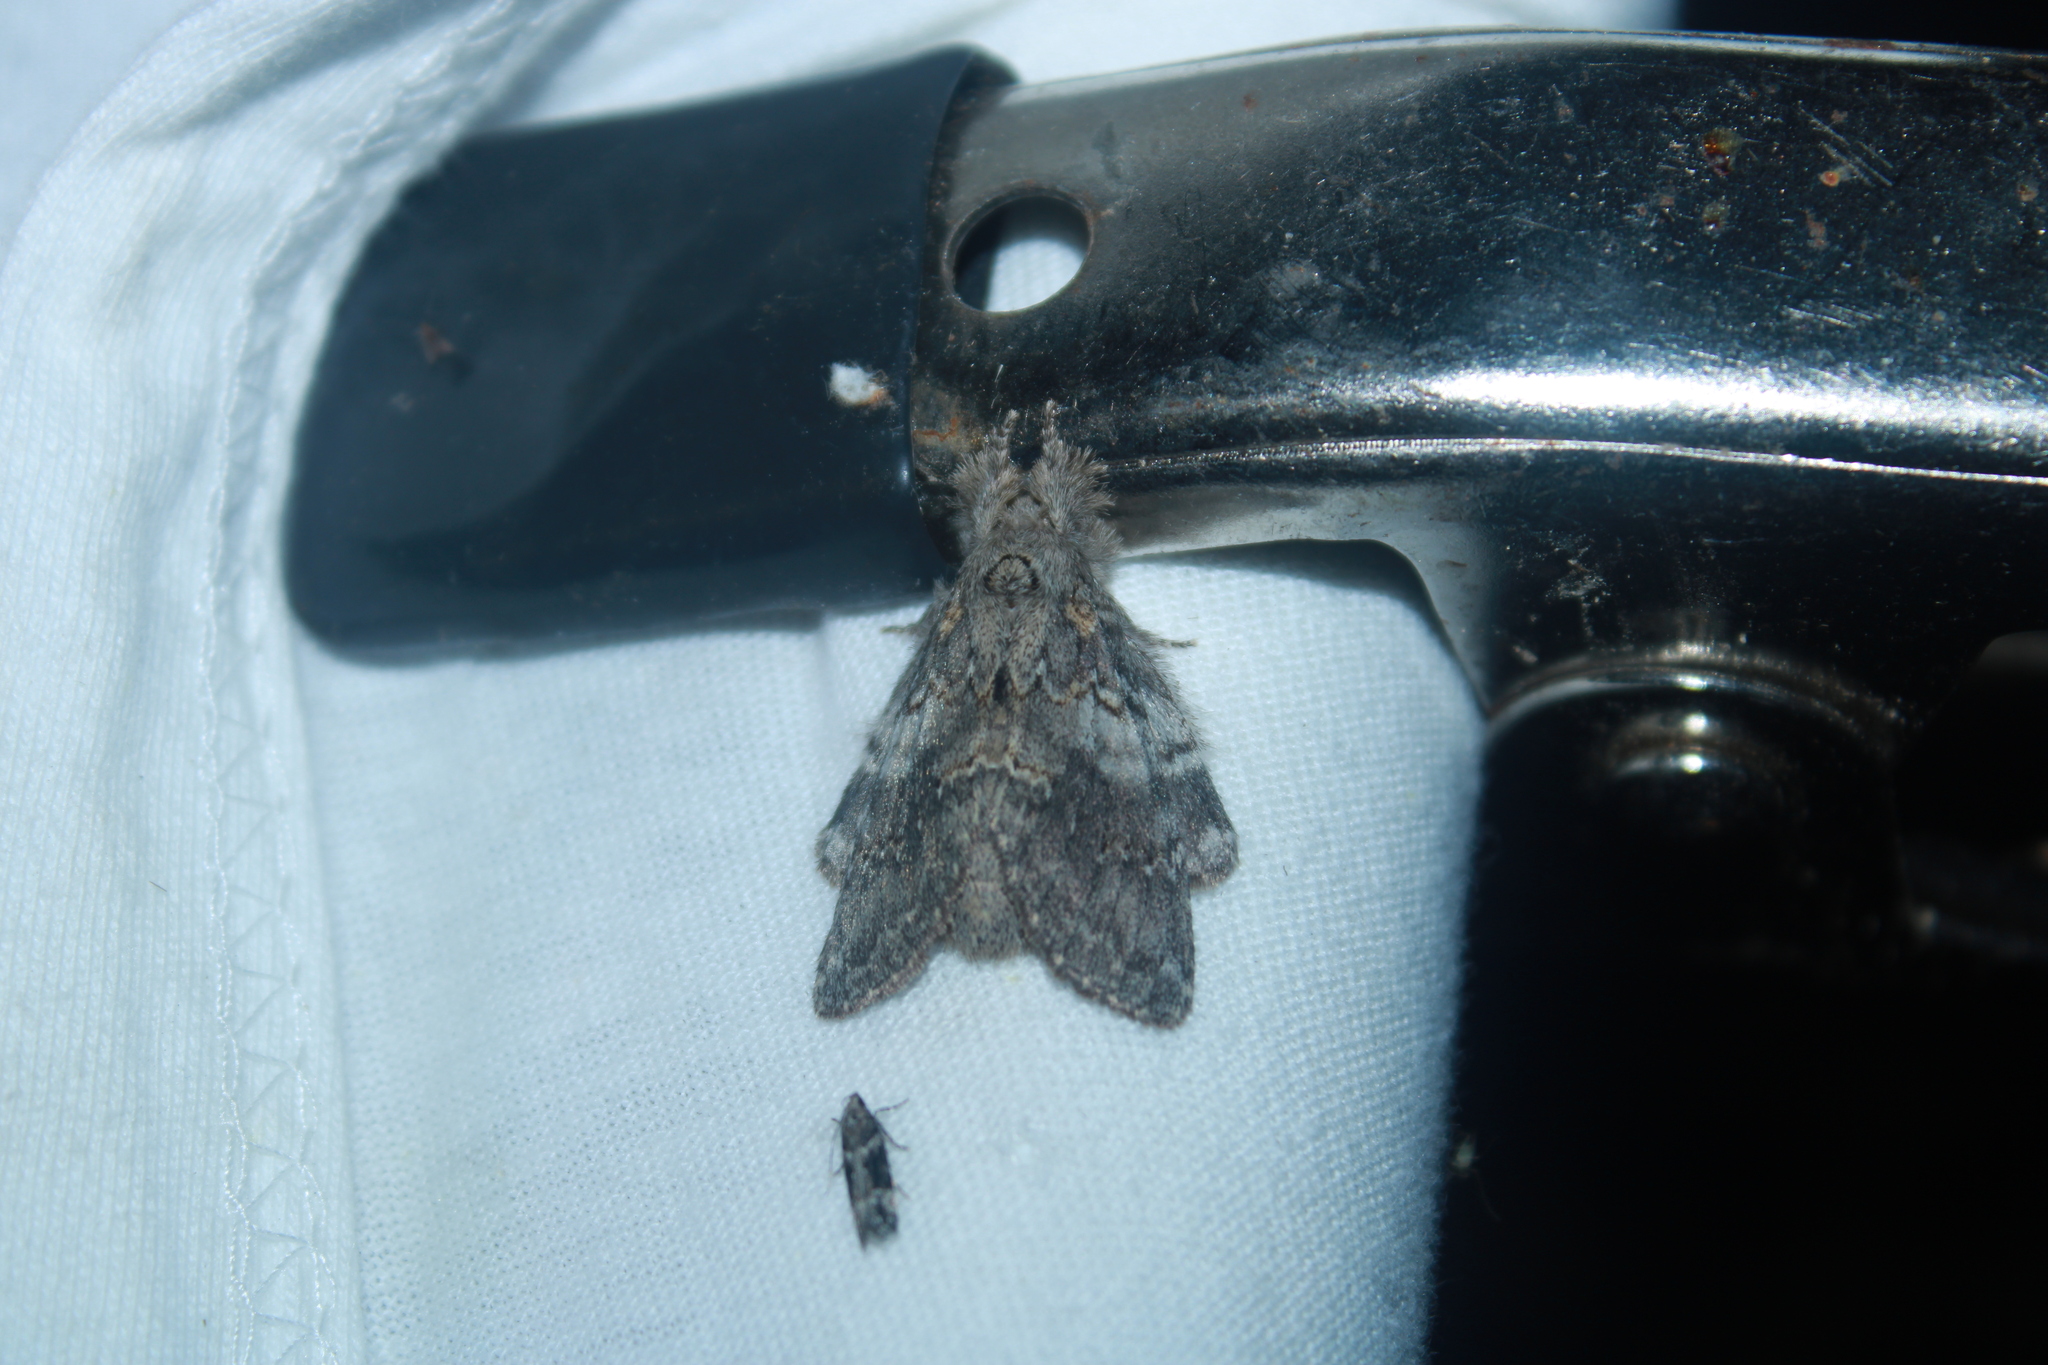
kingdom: Animalia
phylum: Arthropoda
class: Insecta
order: Lepidoptera
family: Notodontidae
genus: Peridea
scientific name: Peridea angulosa
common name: Angulose prominent
